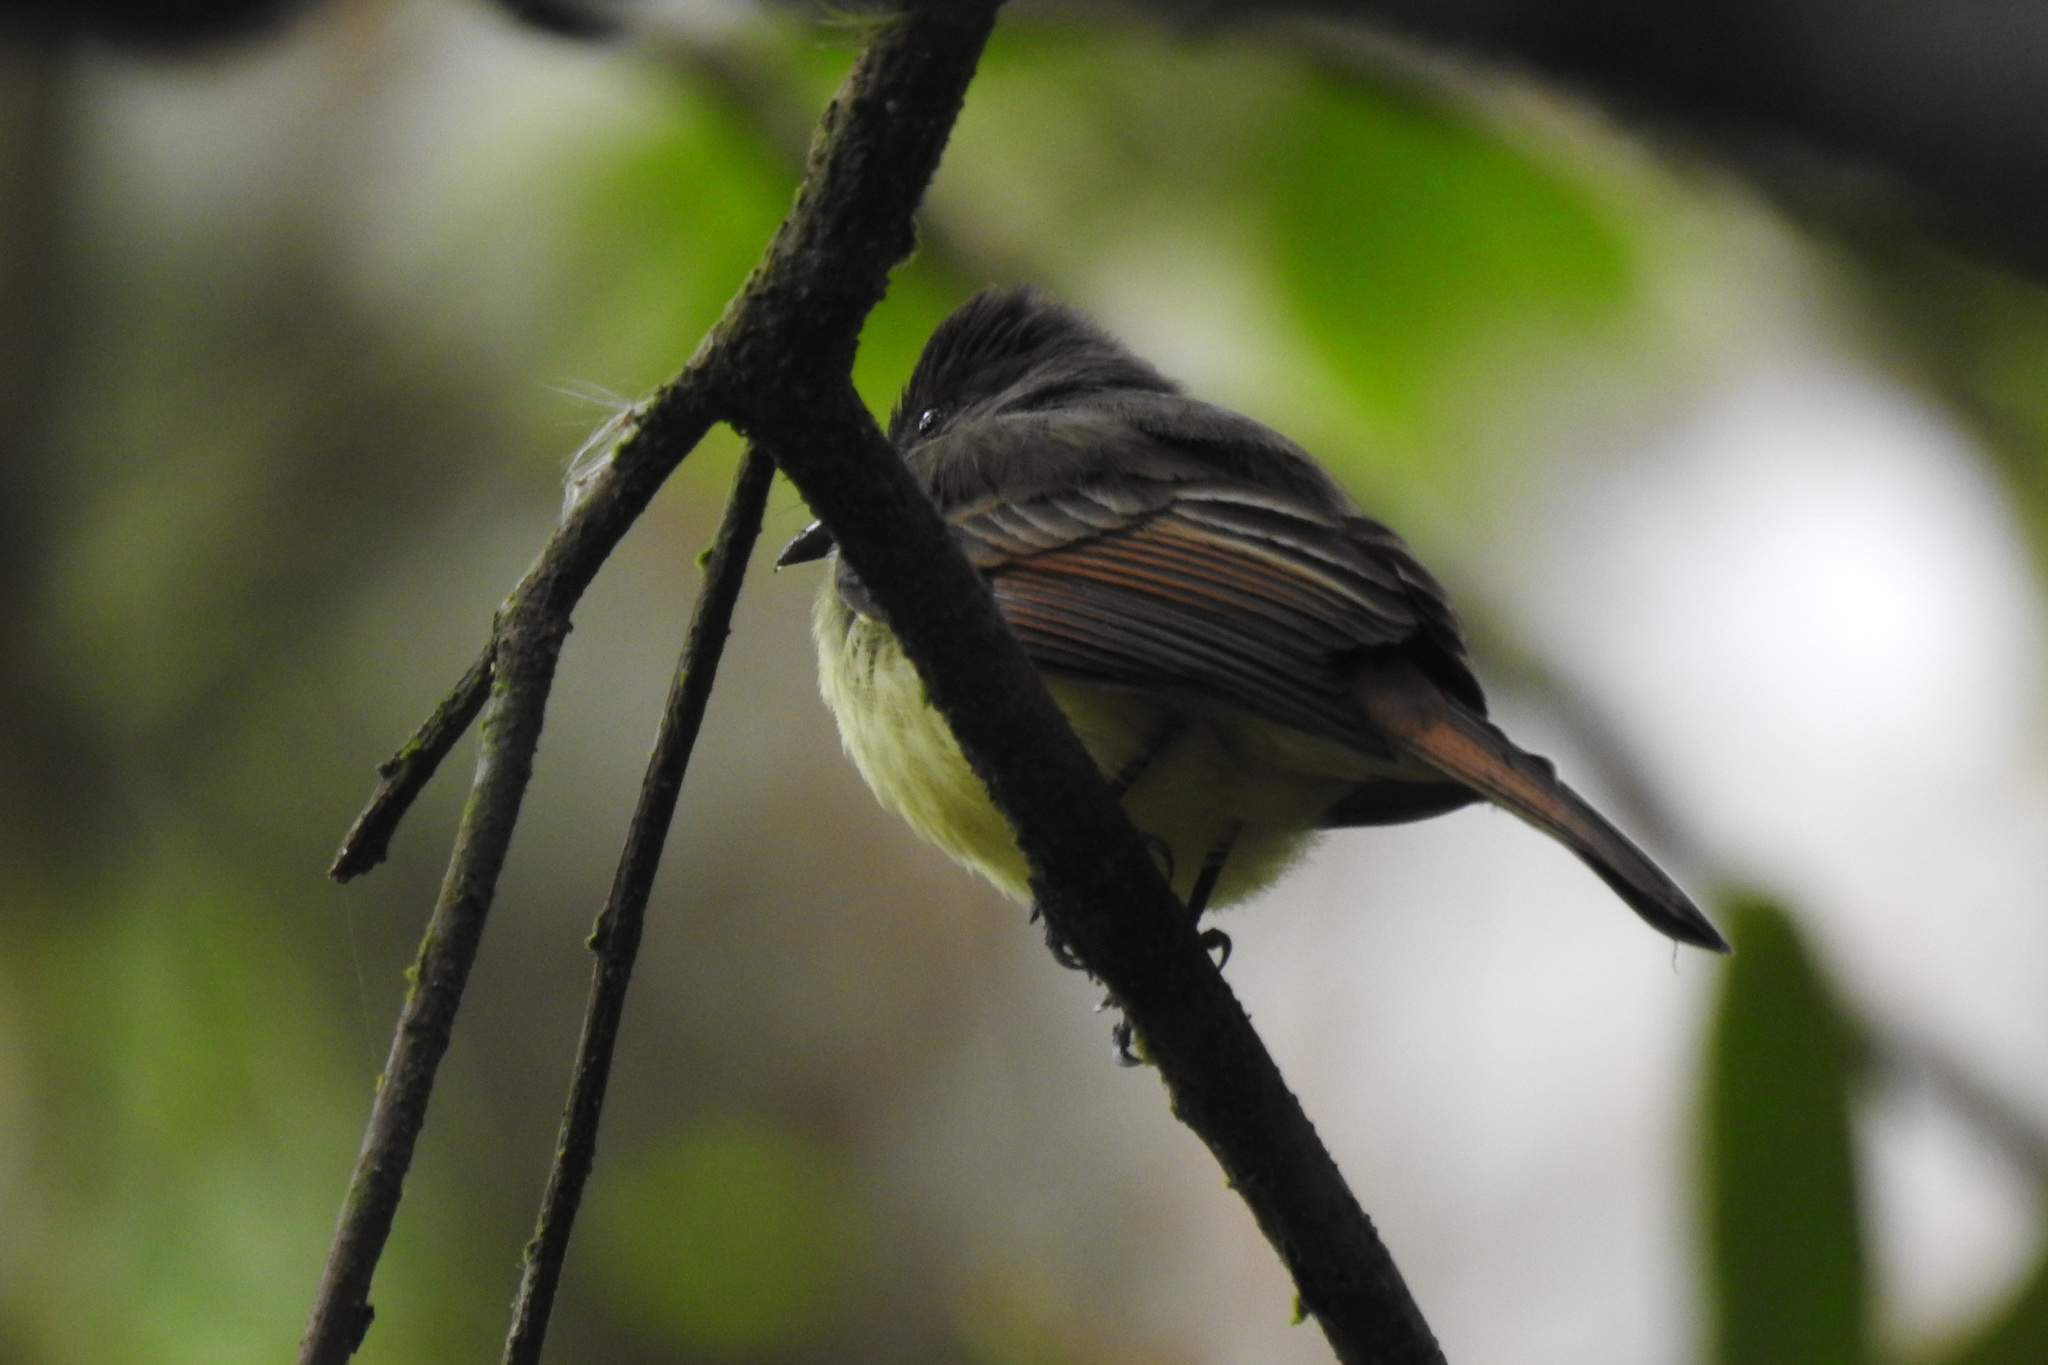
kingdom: Animalia
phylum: Chordata
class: Aves
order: Passeriformes
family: Tyrannidae
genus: Myiarchus
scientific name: Myiarchus tuberculifer
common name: Dusky-capped flycatcher
